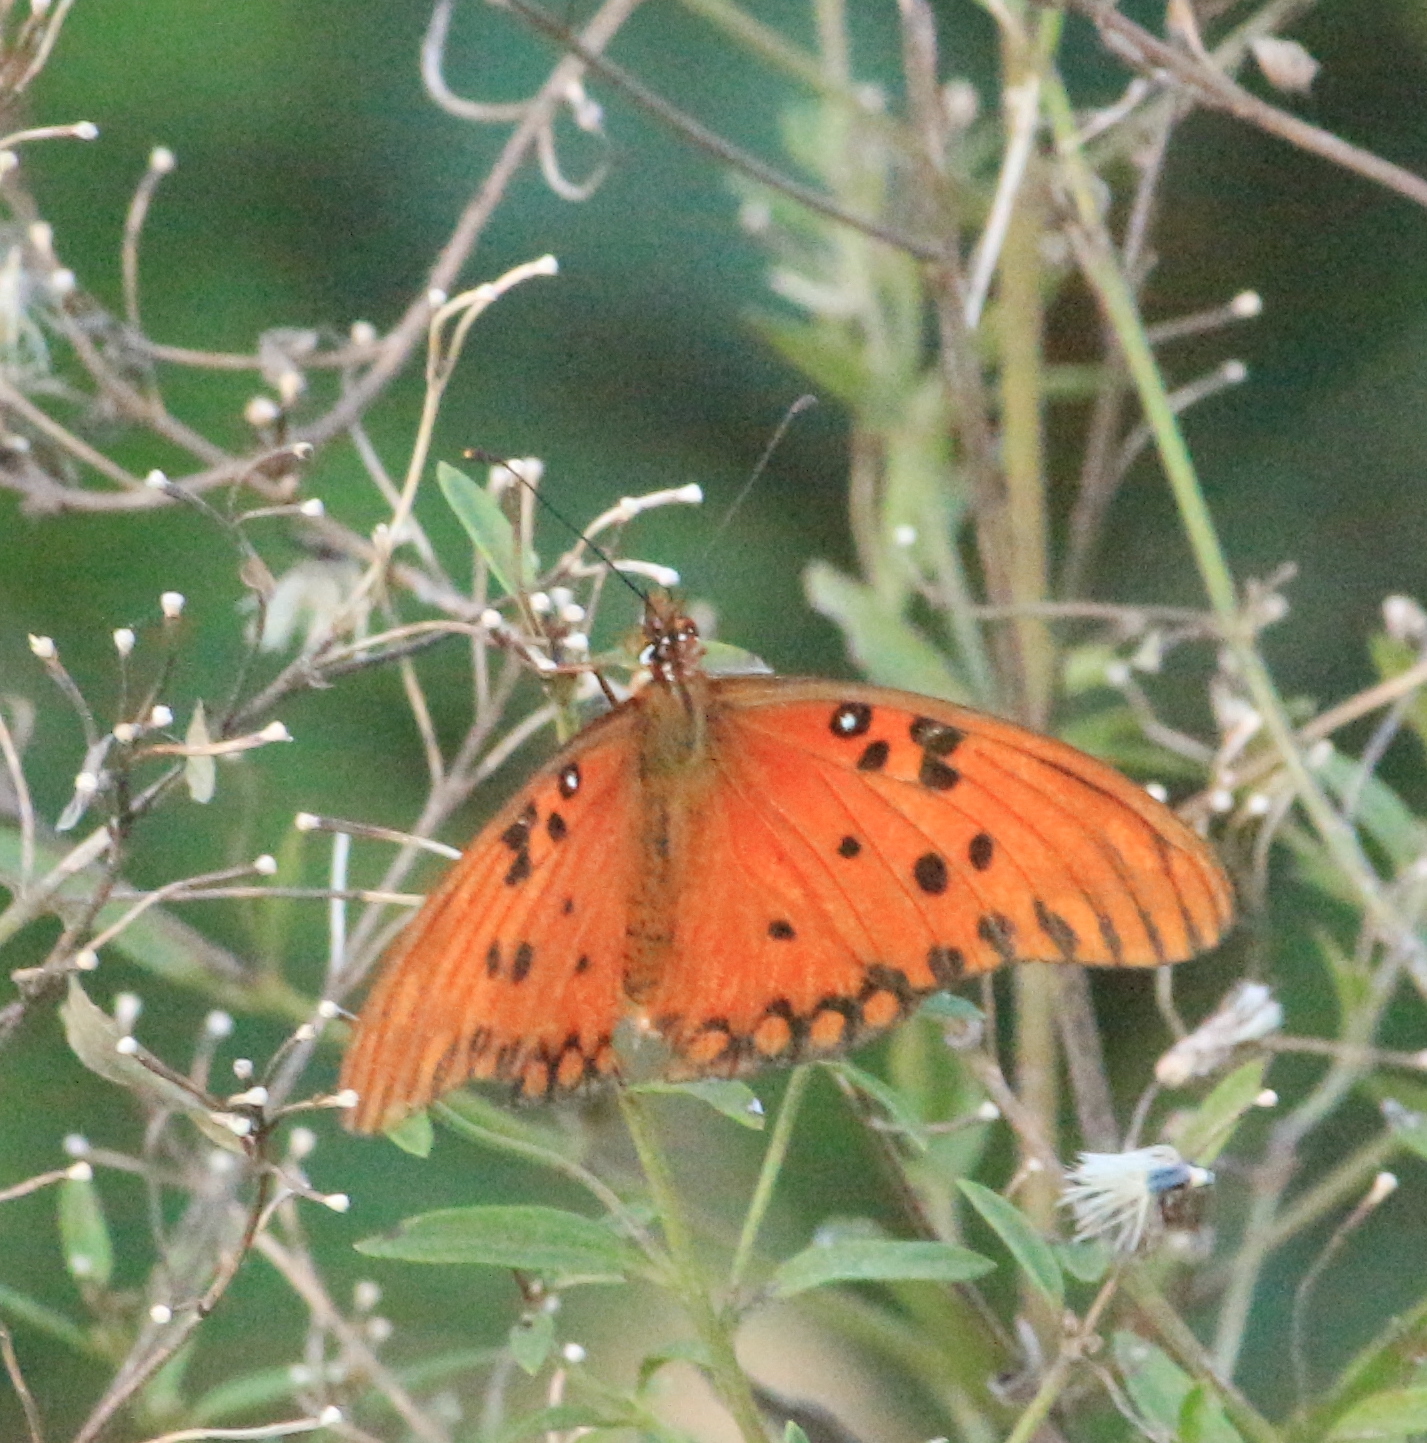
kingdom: Animalia
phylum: Arthropoda
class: Insecta
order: Lepidoptera
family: Nymphalidae
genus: Dione
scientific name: Dione vanillae
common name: Gulf fritillary
